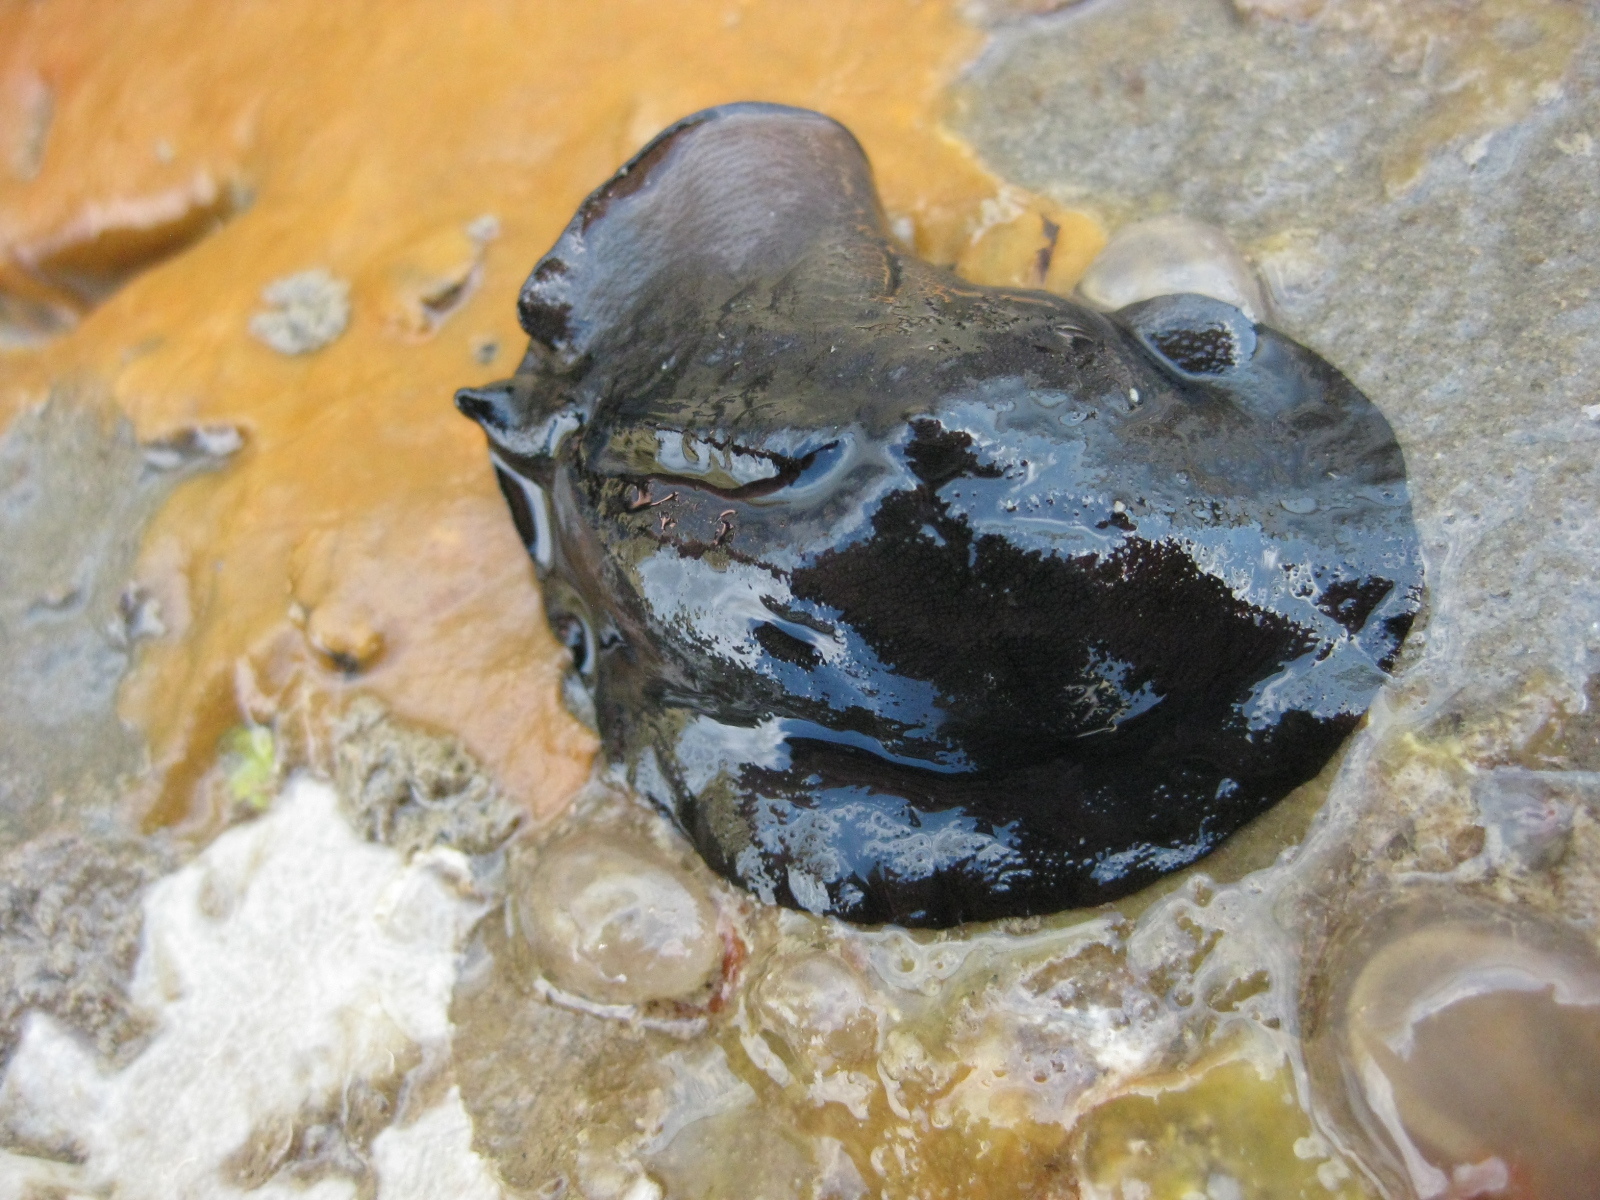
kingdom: Animalia
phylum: Mollusca
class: Gastropoda
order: Lepetellida
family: Fissurellidae
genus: Scutus
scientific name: Scutus breviculus
